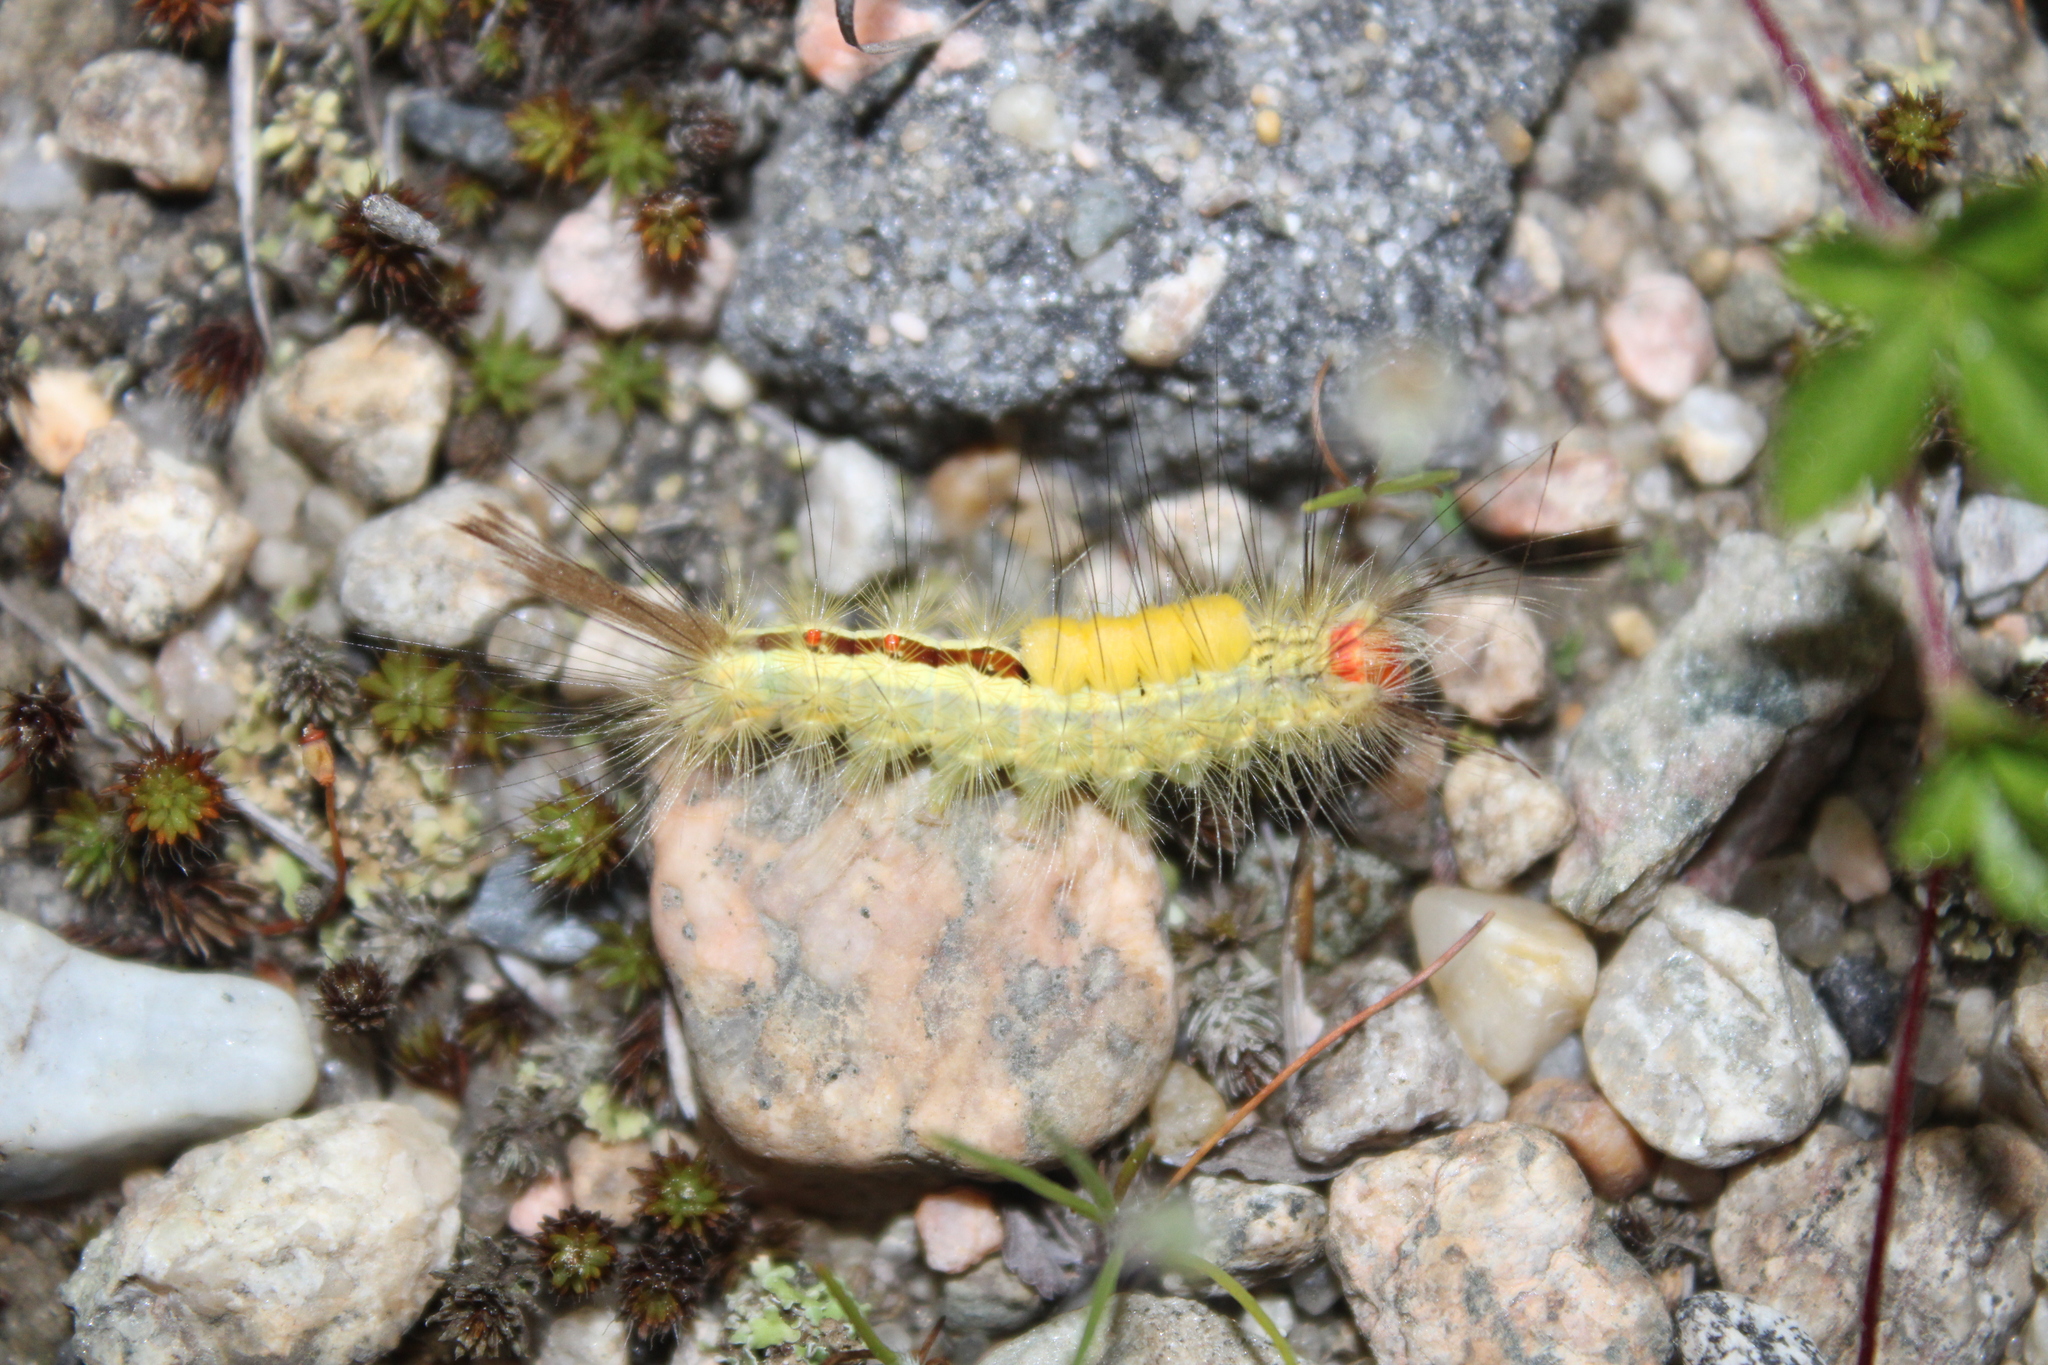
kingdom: Animalia
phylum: Arthropoda
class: Insecta
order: Lepidoptera
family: Erebidae
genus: Orgyia
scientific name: Orgyia leucostigma
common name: White-marked tussock moth
